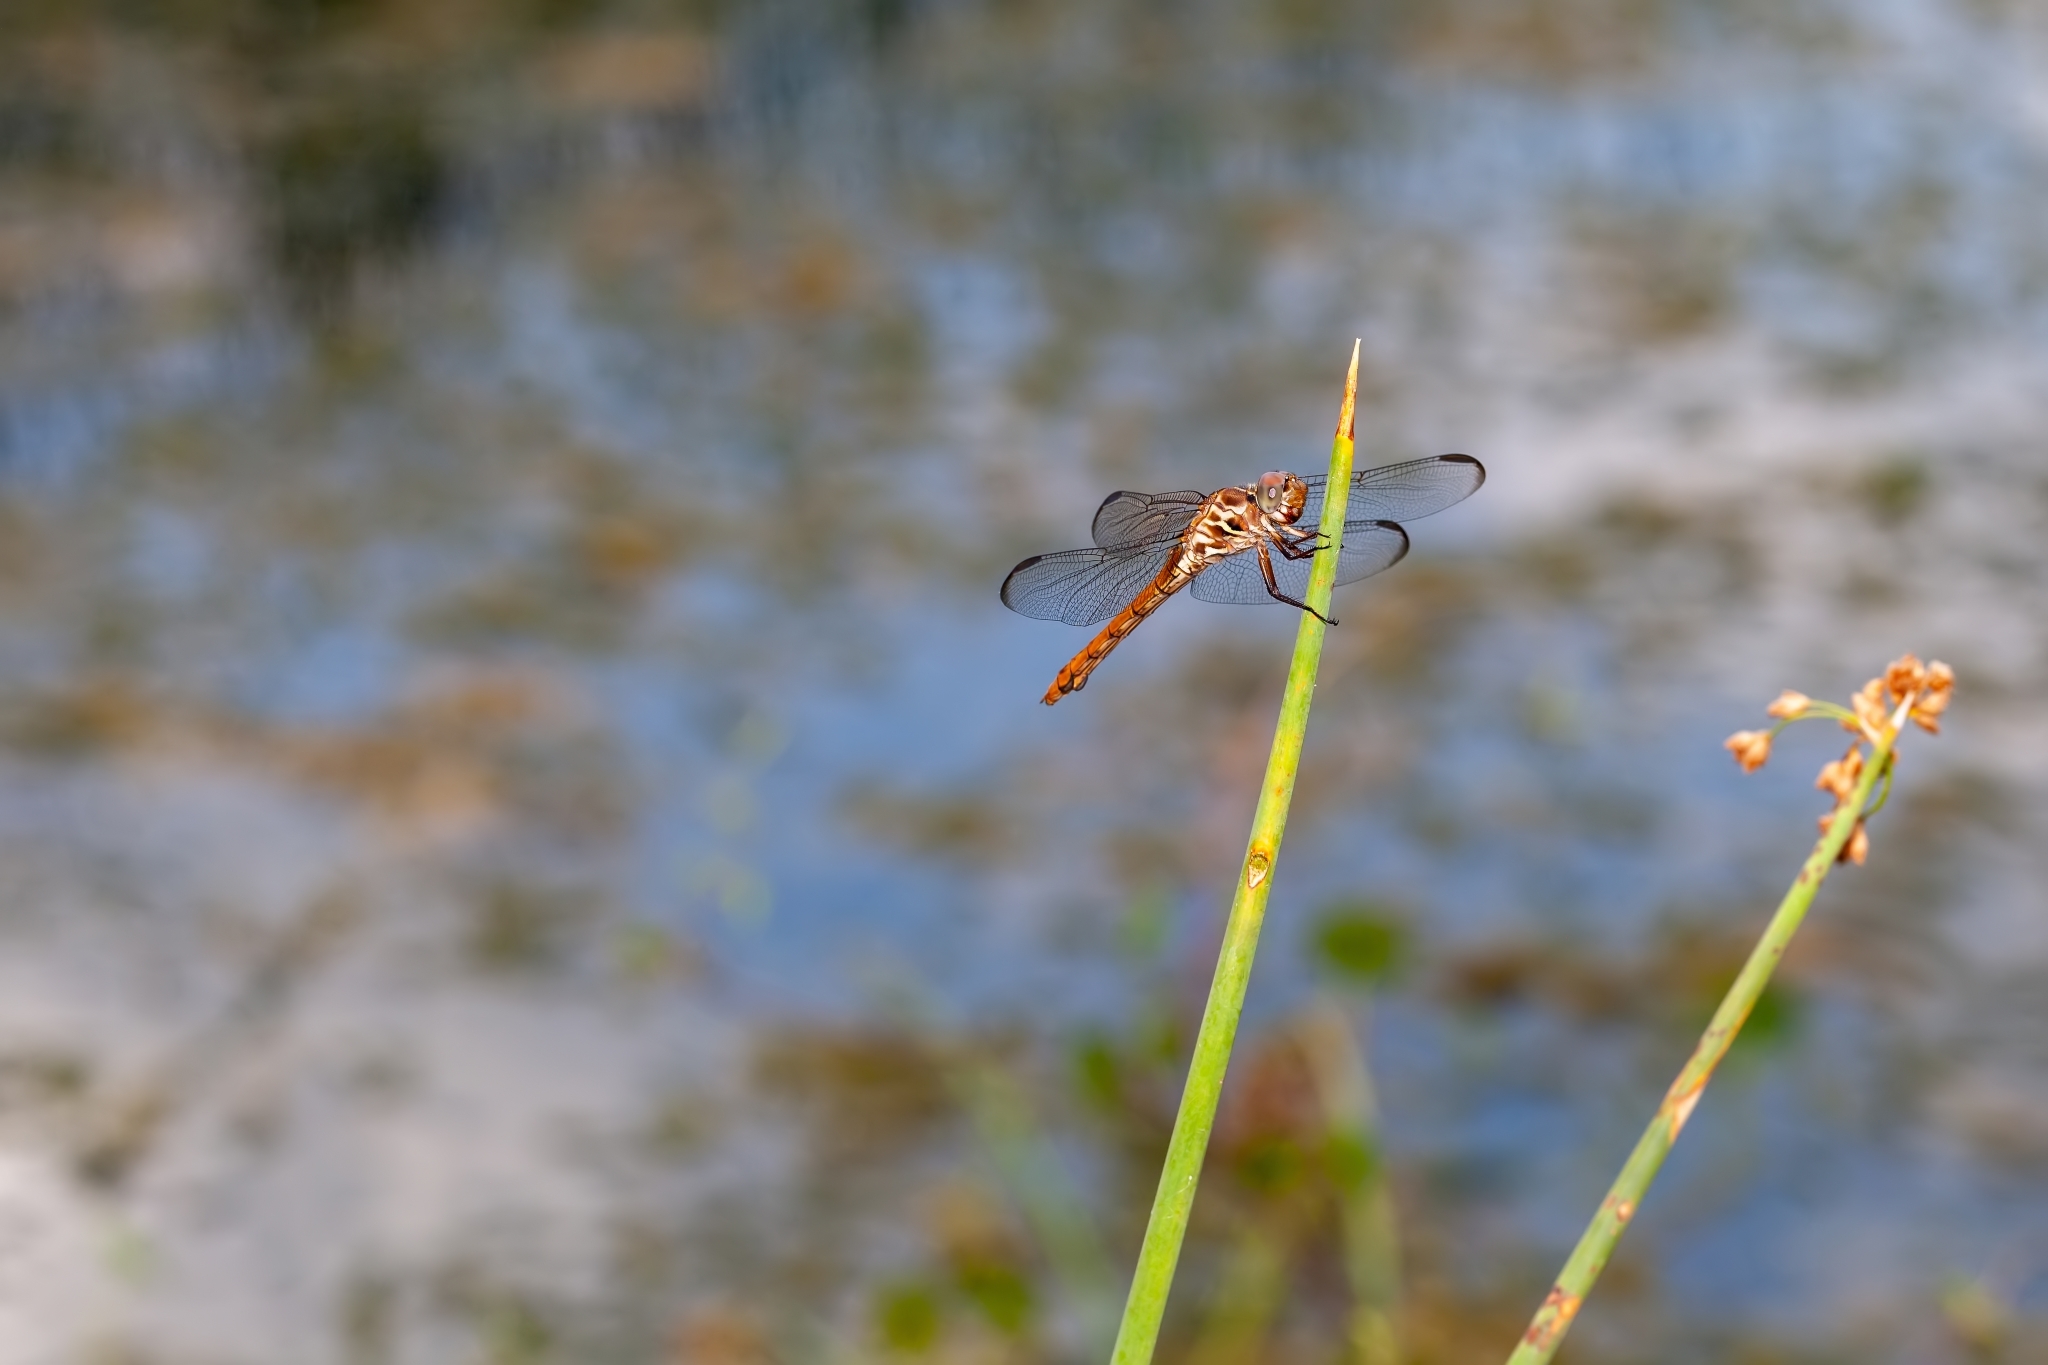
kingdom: Animalia
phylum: Arthropoda
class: Insecta
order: Odonata
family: Libellulidae
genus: Orthemis
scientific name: Orthemis ferruginea
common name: Roseate skimmer
